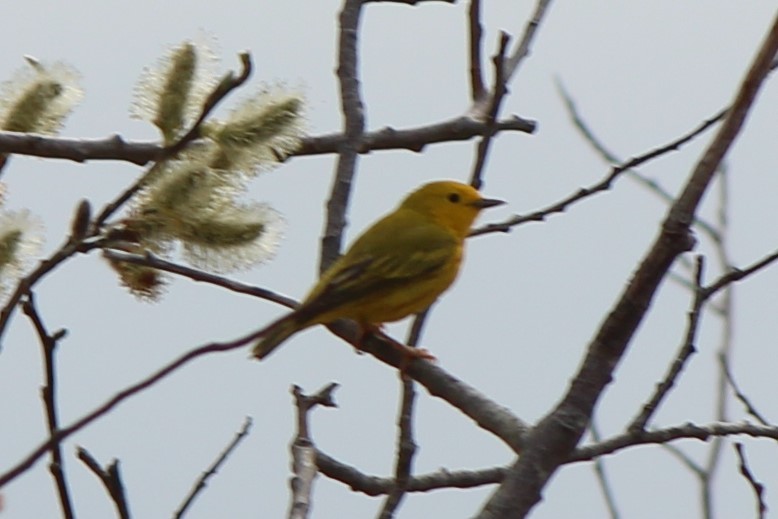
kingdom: Animalia
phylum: Chordata
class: Aves
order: Passeriformes
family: Parulidae
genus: Setophaga
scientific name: Setophaga petechia
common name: Yellow warbler
